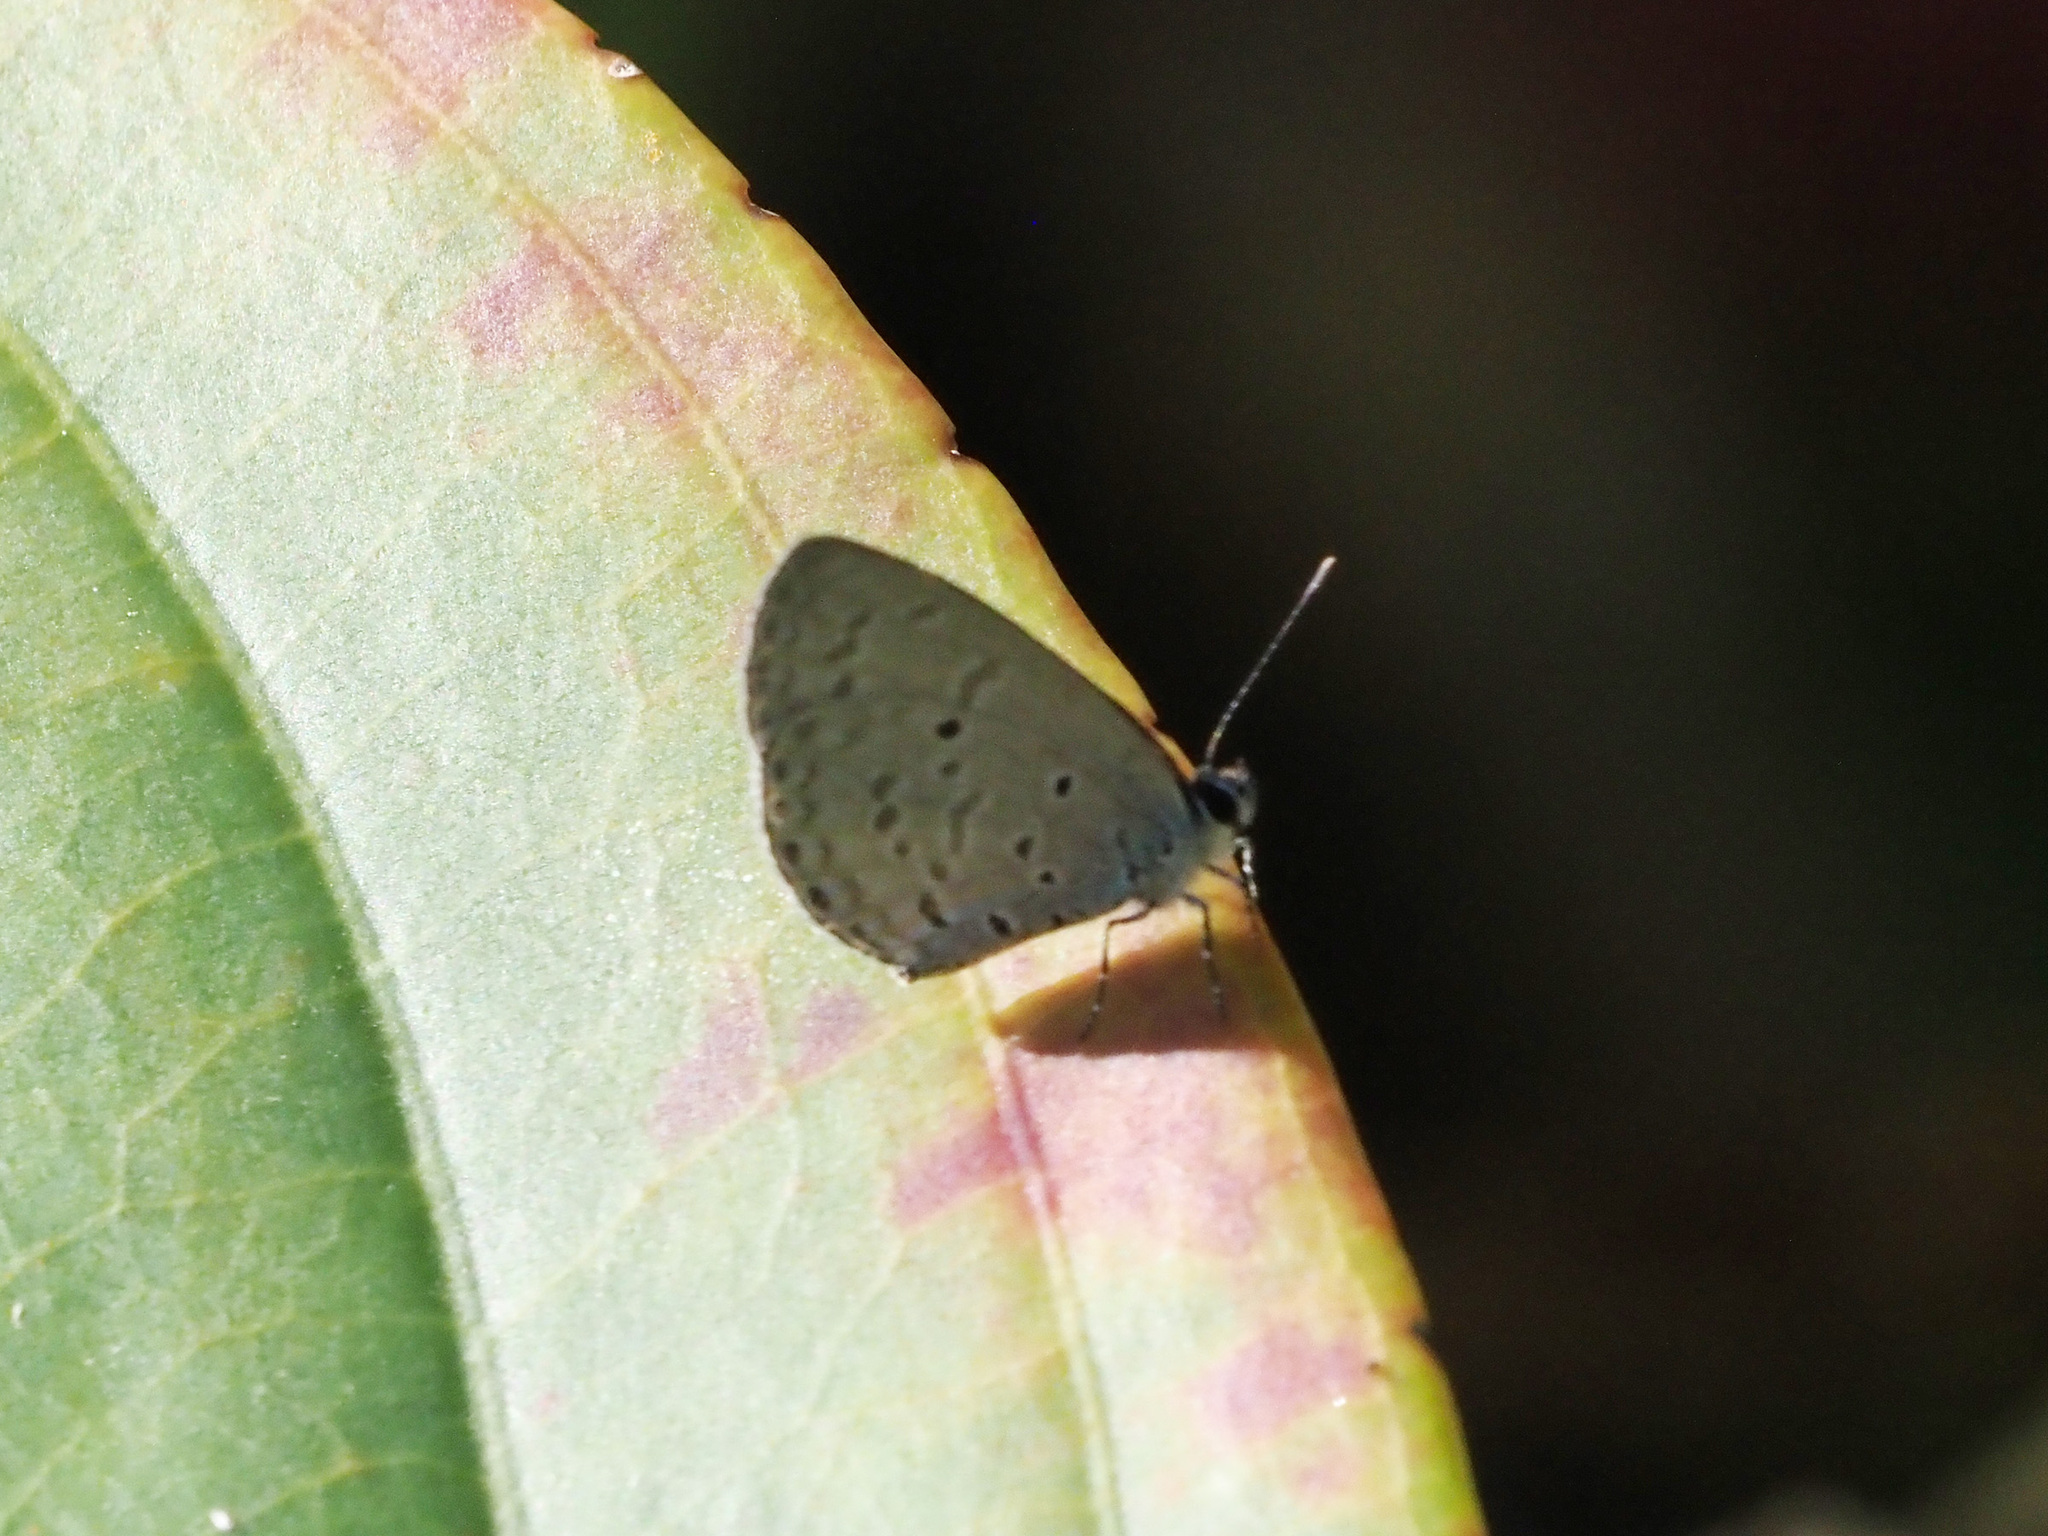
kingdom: Animalia
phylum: Arthropoda
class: Insecta
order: Lepidoptera
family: Lycaenidae
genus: Monodontides
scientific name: Monodontides
